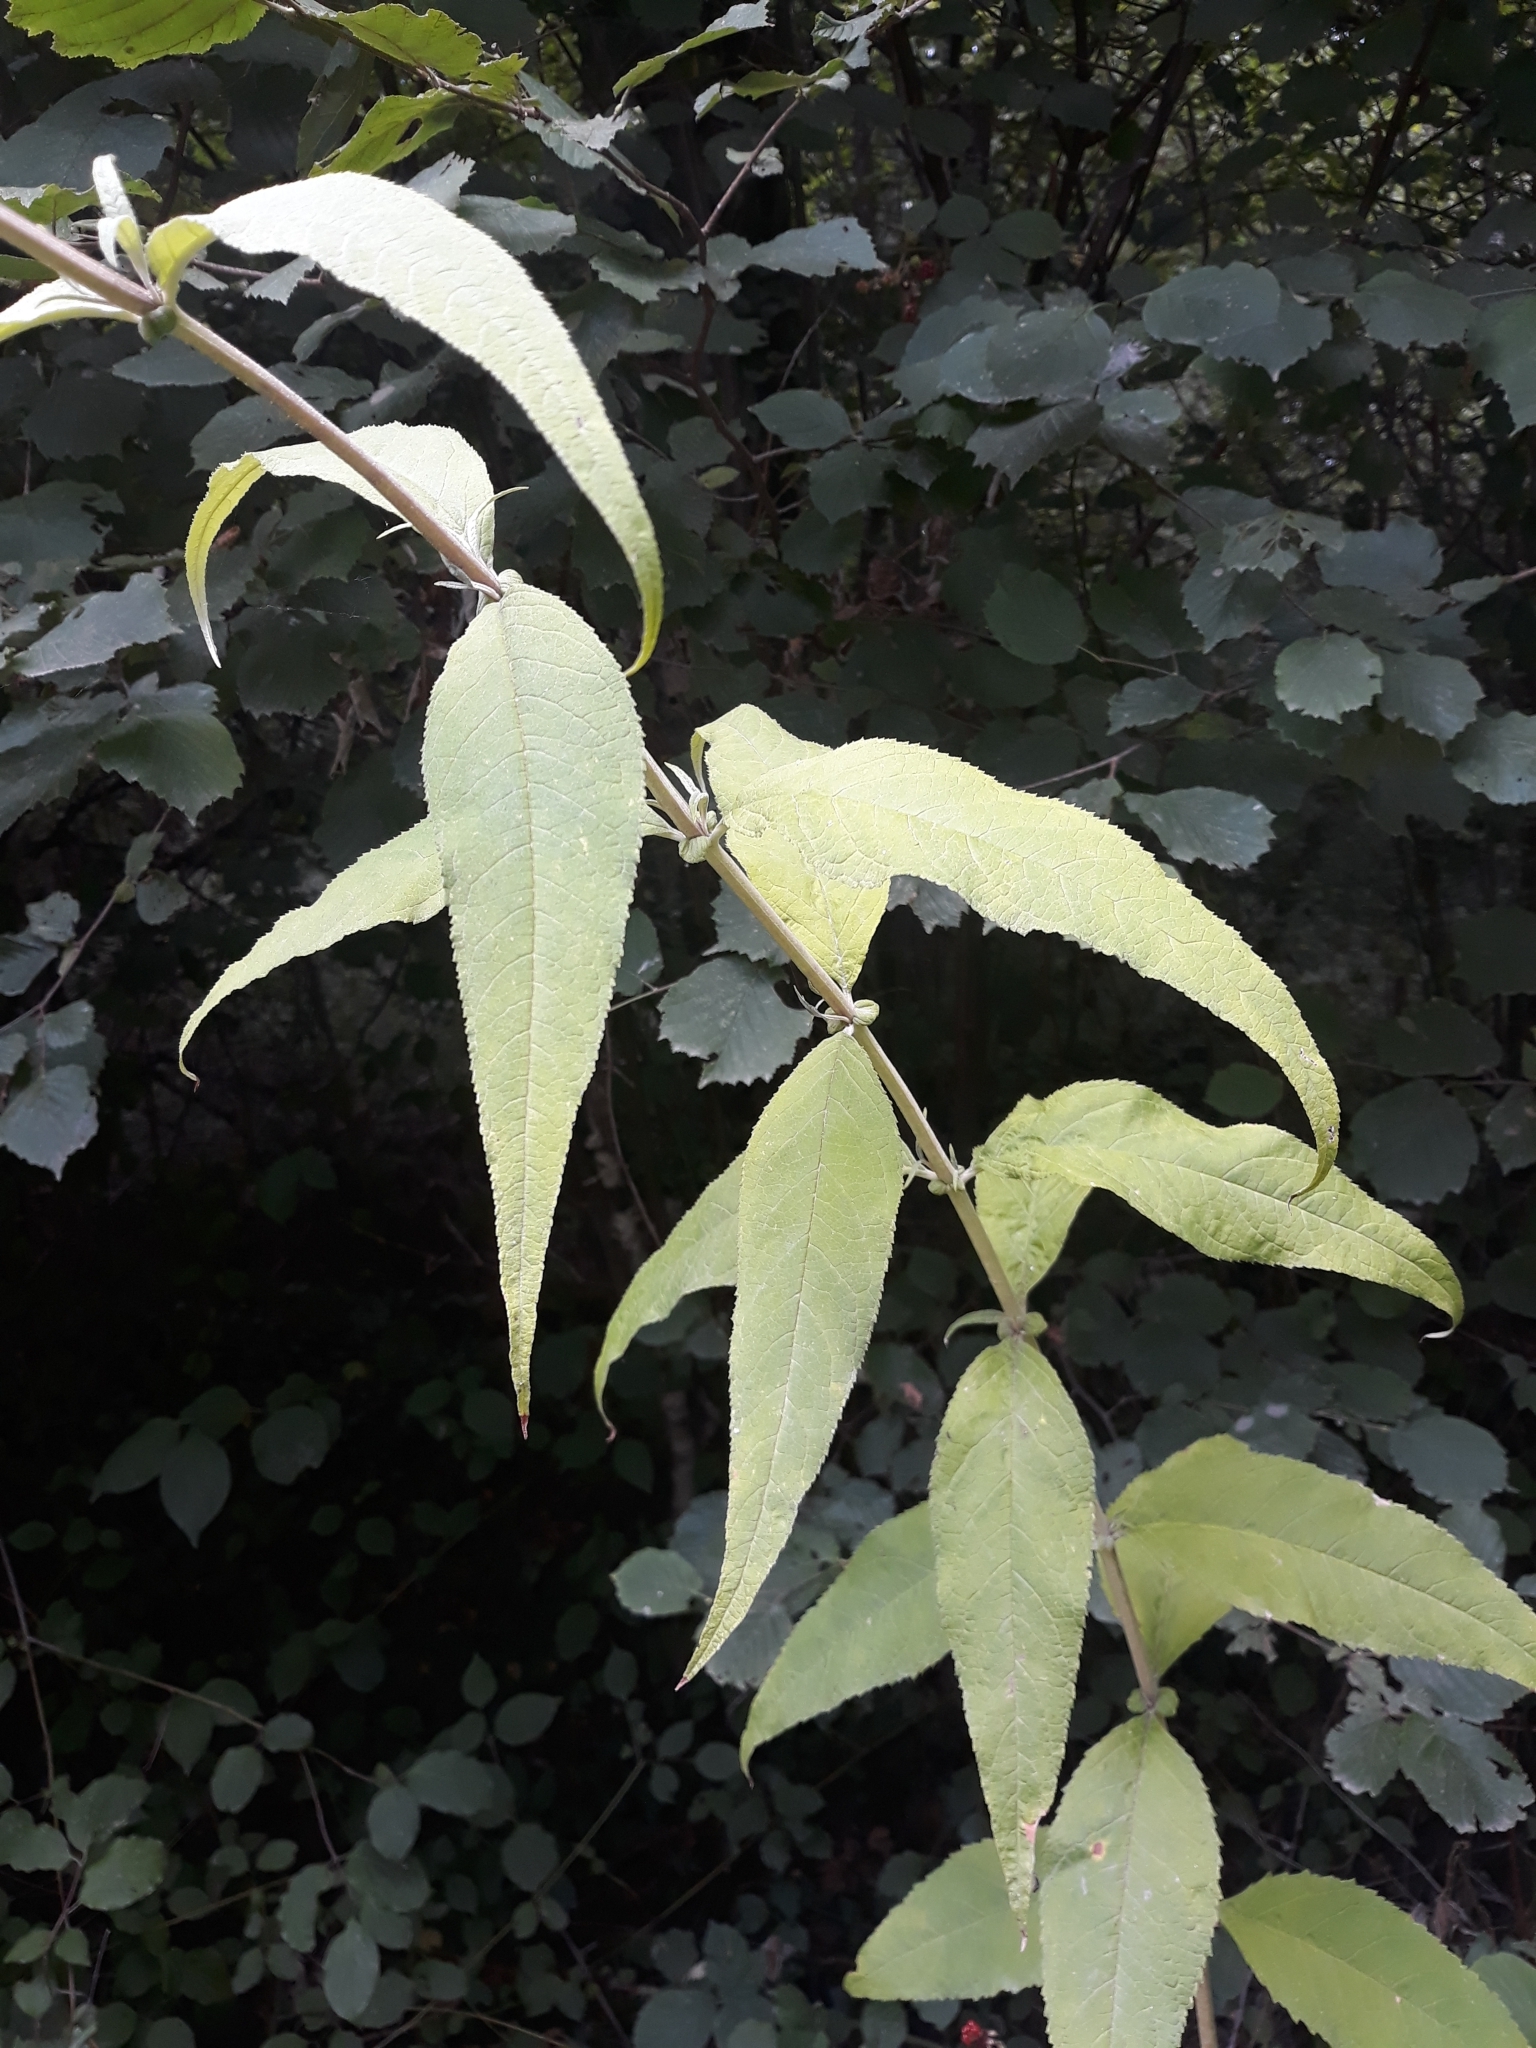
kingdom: Plantae
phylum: Tracheophyta
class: Magnoliopsida
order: Lamiales
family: Scrophulariaceae
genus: Buddleja
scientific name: Buddleja davidii
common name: Butterfly-bush
